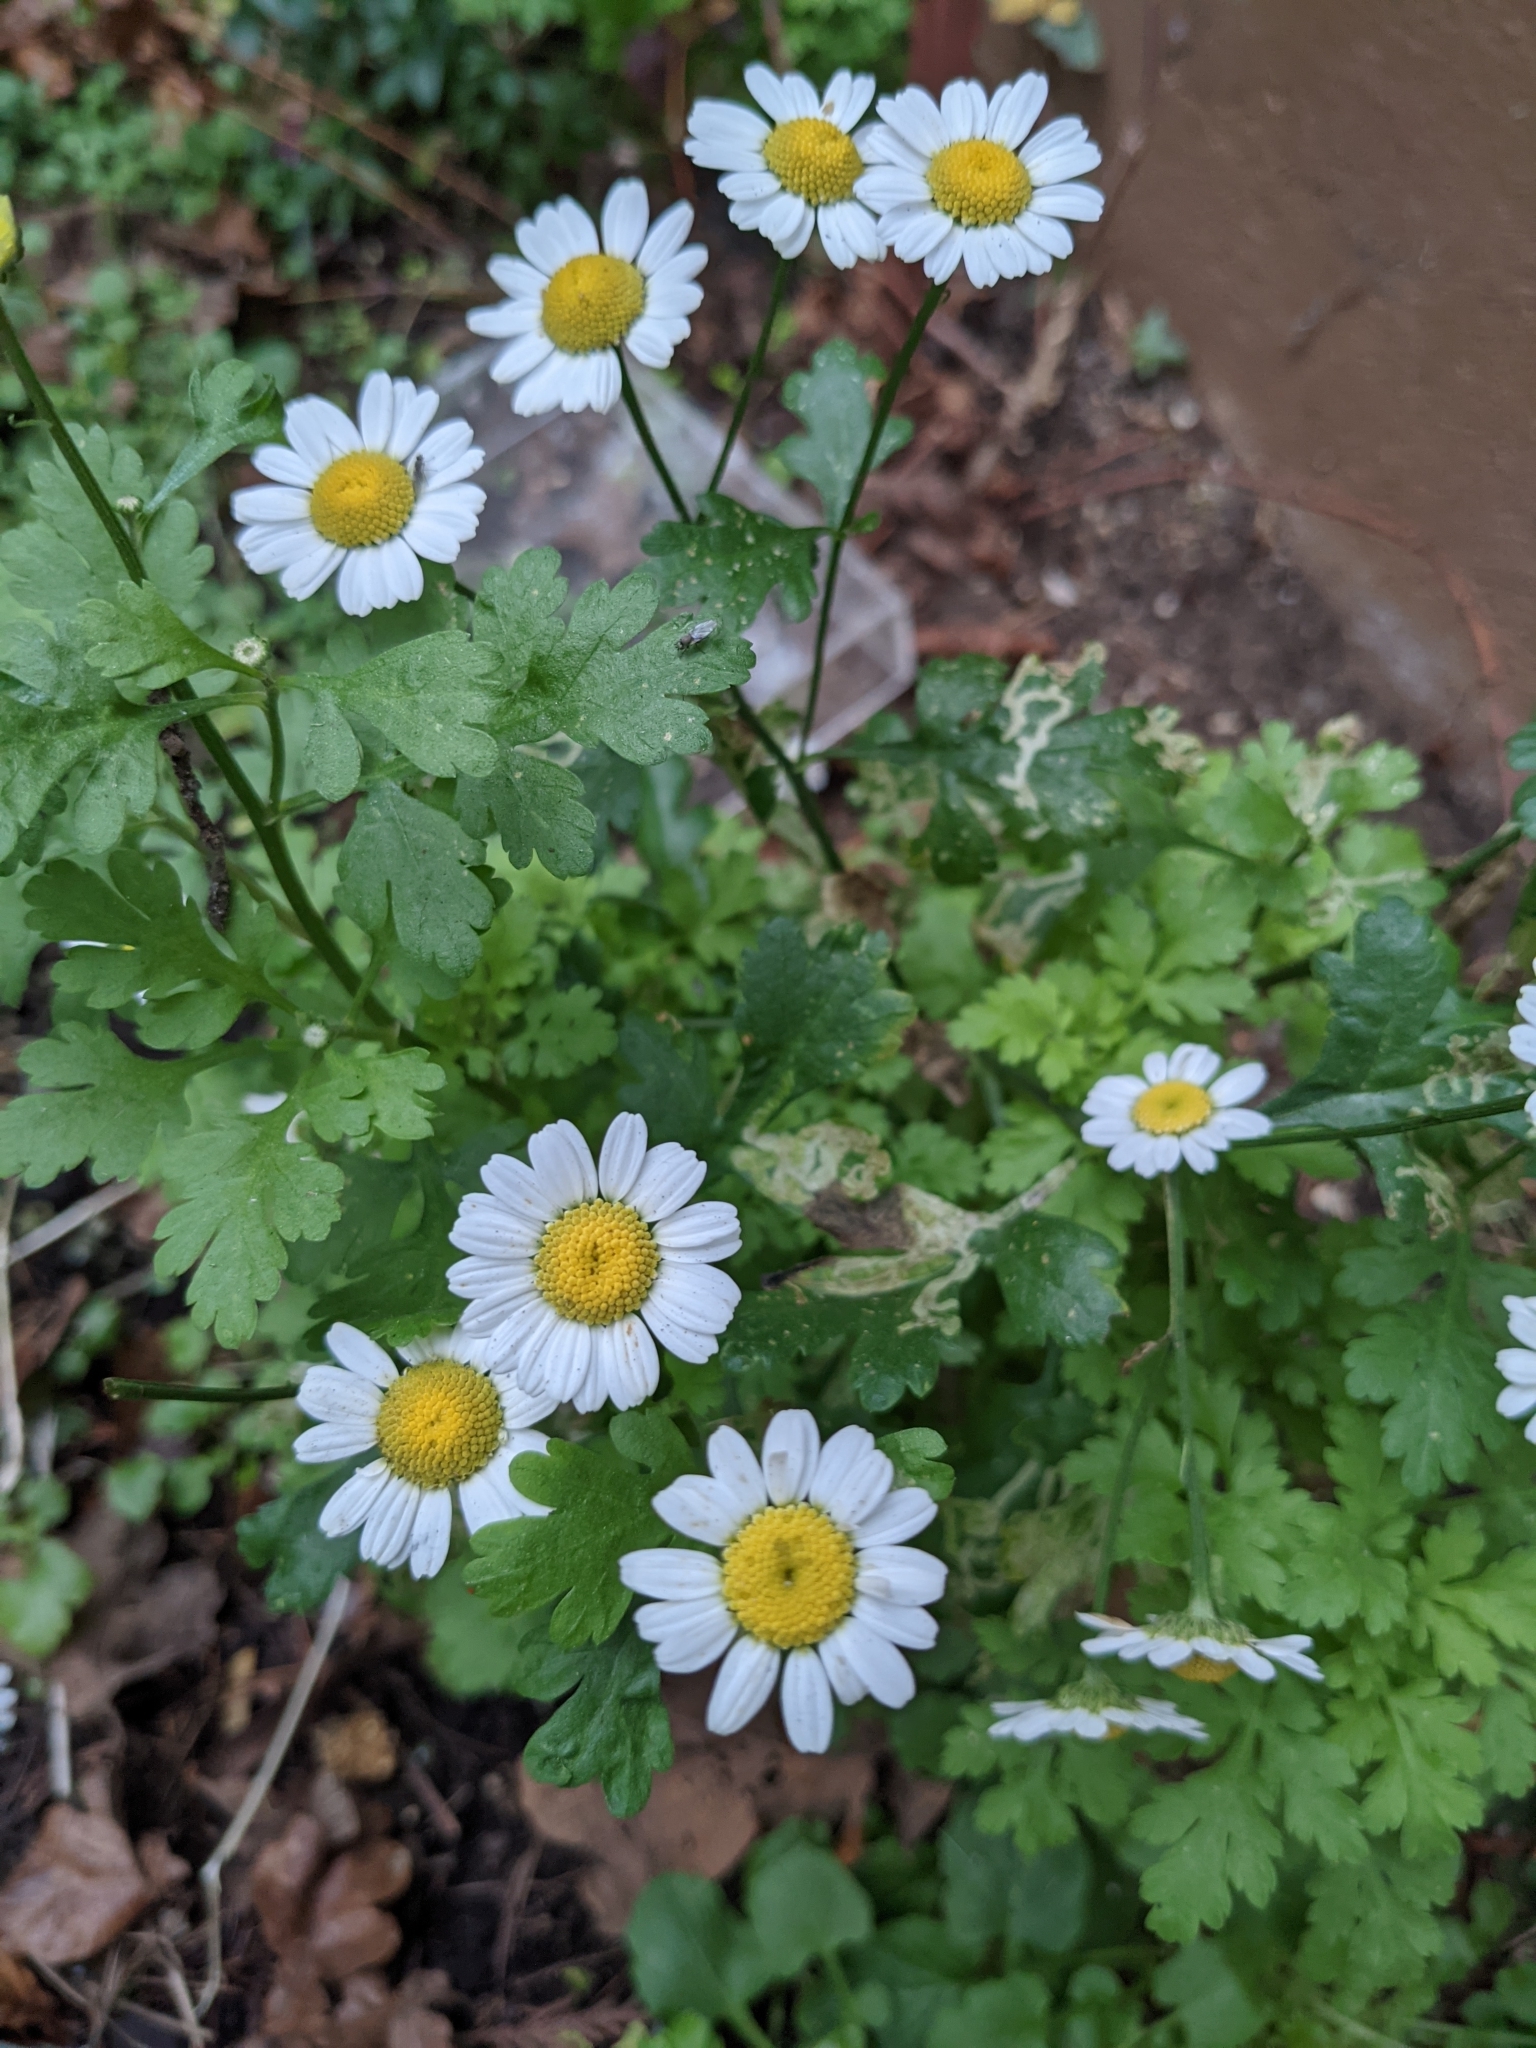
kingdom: Plantae
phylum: Tracheophyta
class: Magnoliopsida
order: Asterales
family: Asteraceae
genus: Tanacetum
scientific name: Tanacetum parthenium
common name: Feverfew
